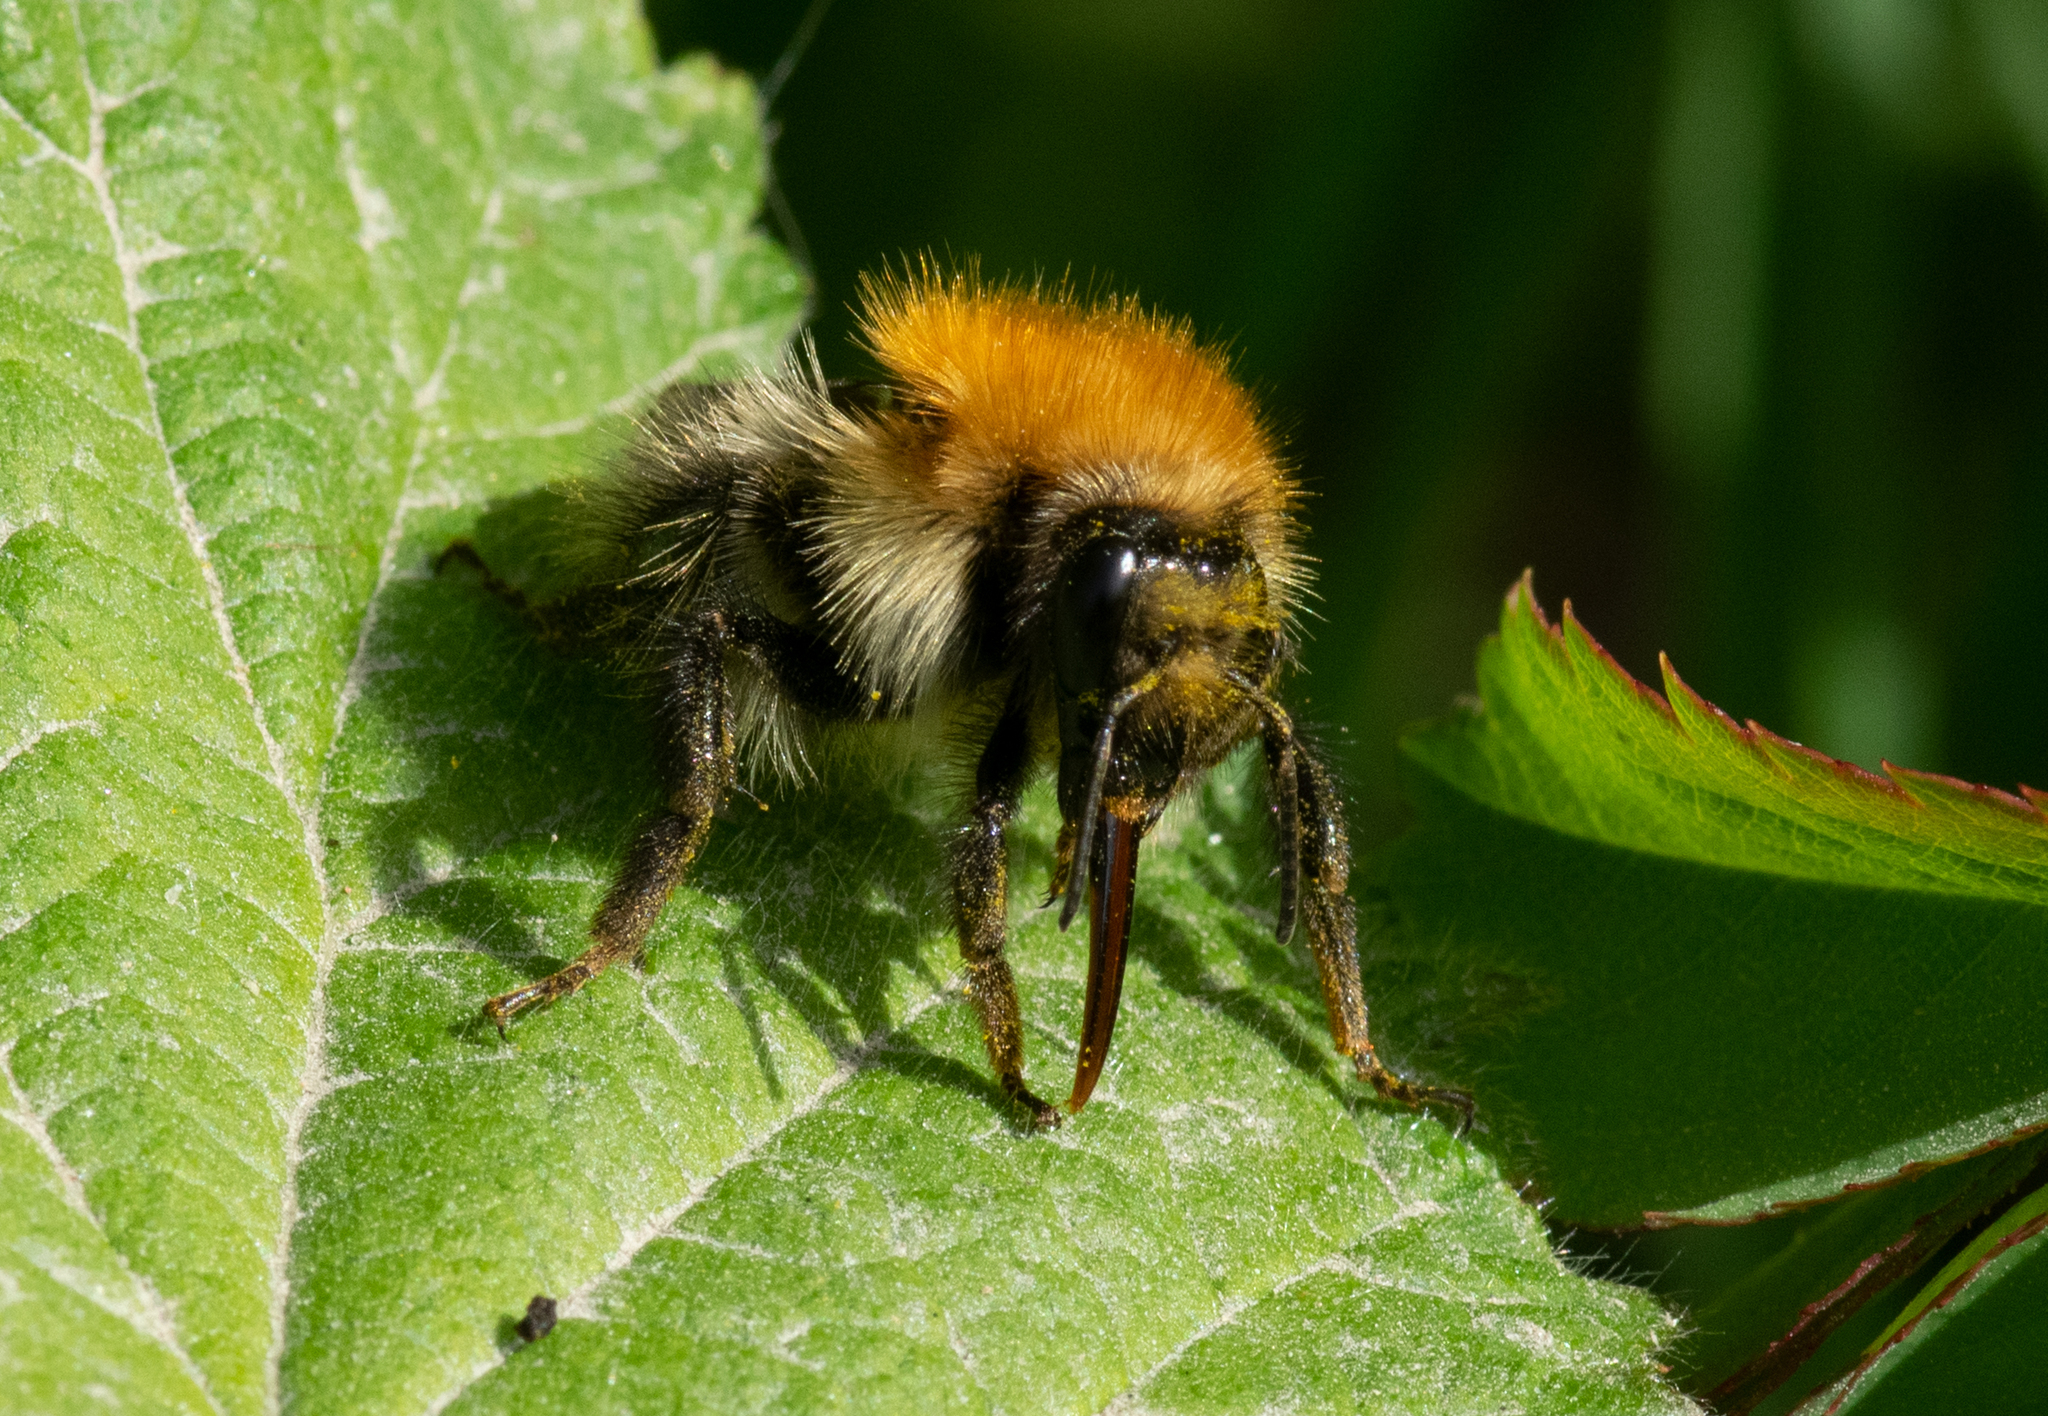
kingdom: Animalia
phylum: Arthropoda
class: Insecta
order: Hymenoptera
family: Apidae
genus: Bombus
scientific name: Bombus pascuorum
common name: Common carder bee
